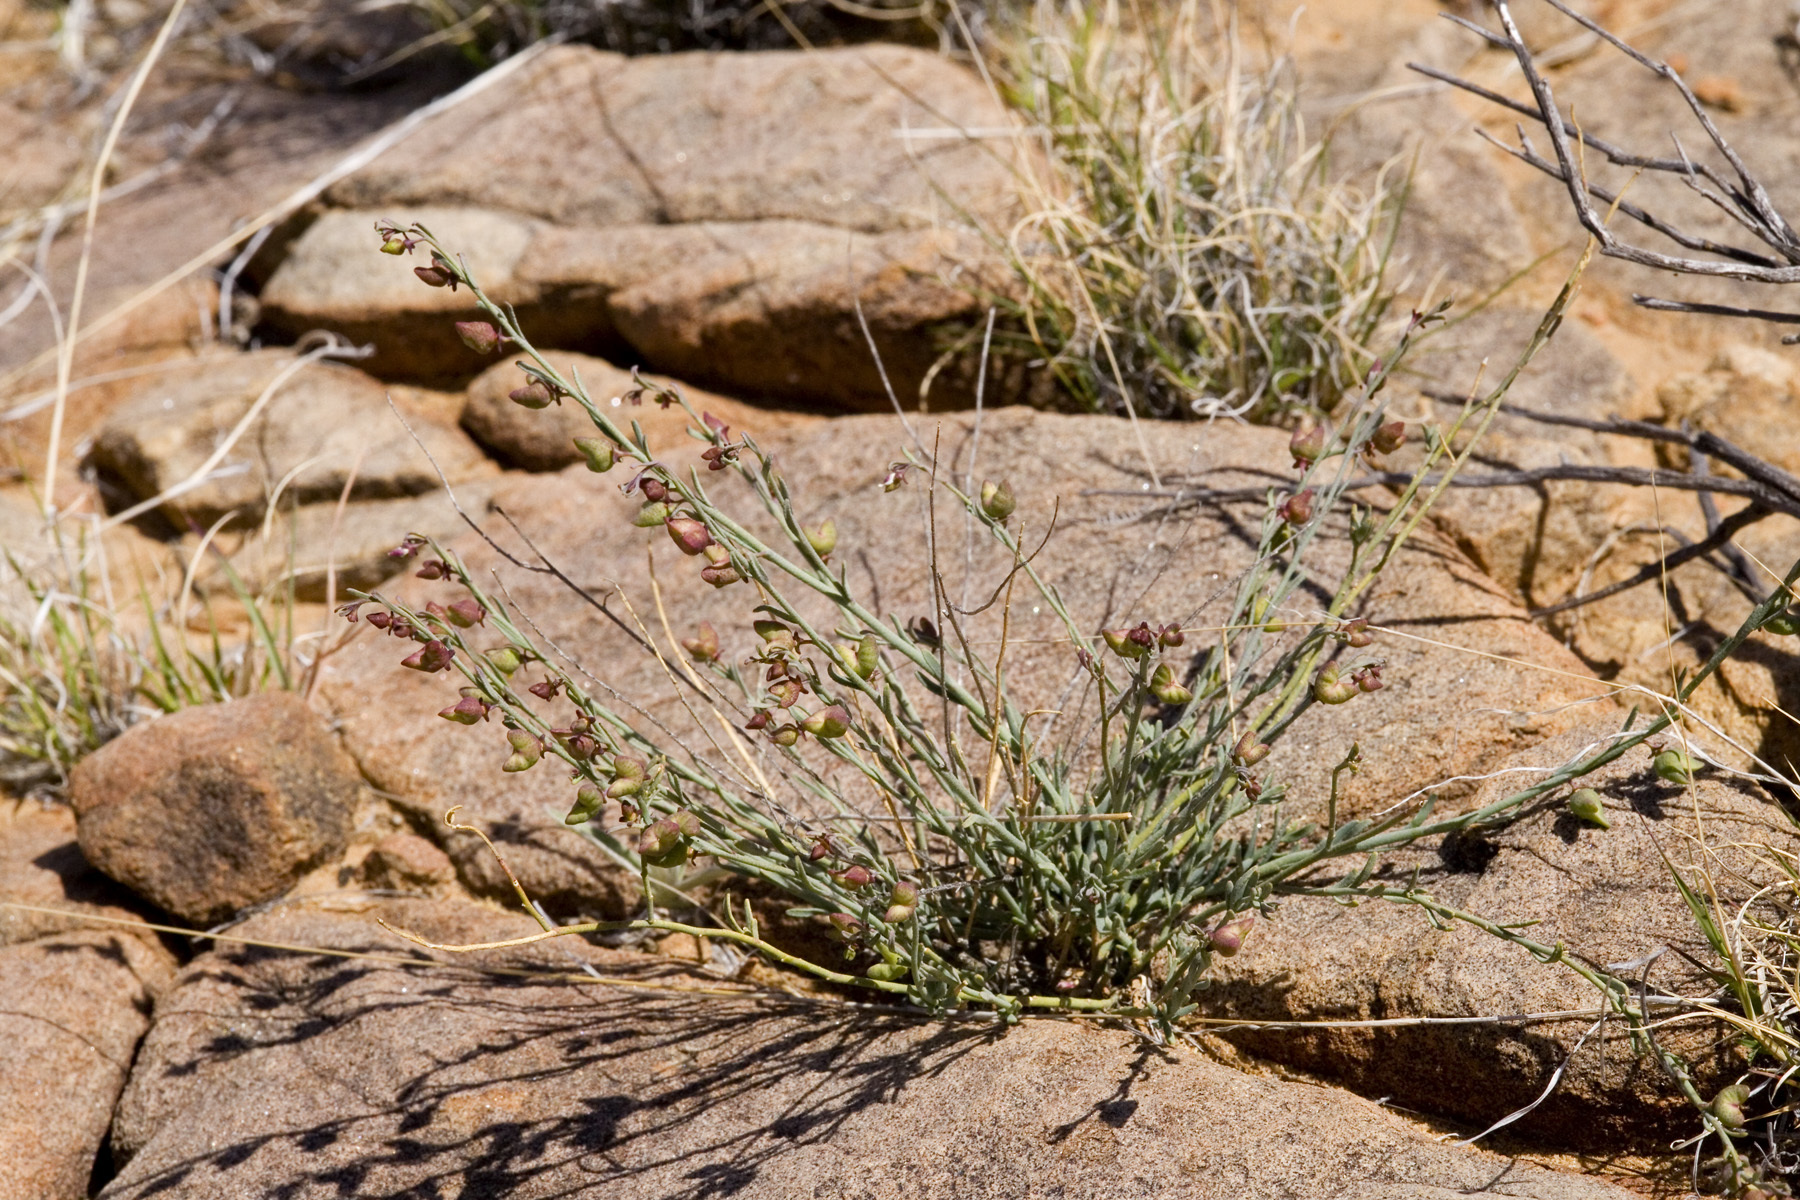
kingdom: Plantae
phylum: Tracheophyta
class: Magnoliopsida
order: Sapindales
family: Rutaceae
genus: Thamnosma
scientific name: Thamnosma texana
